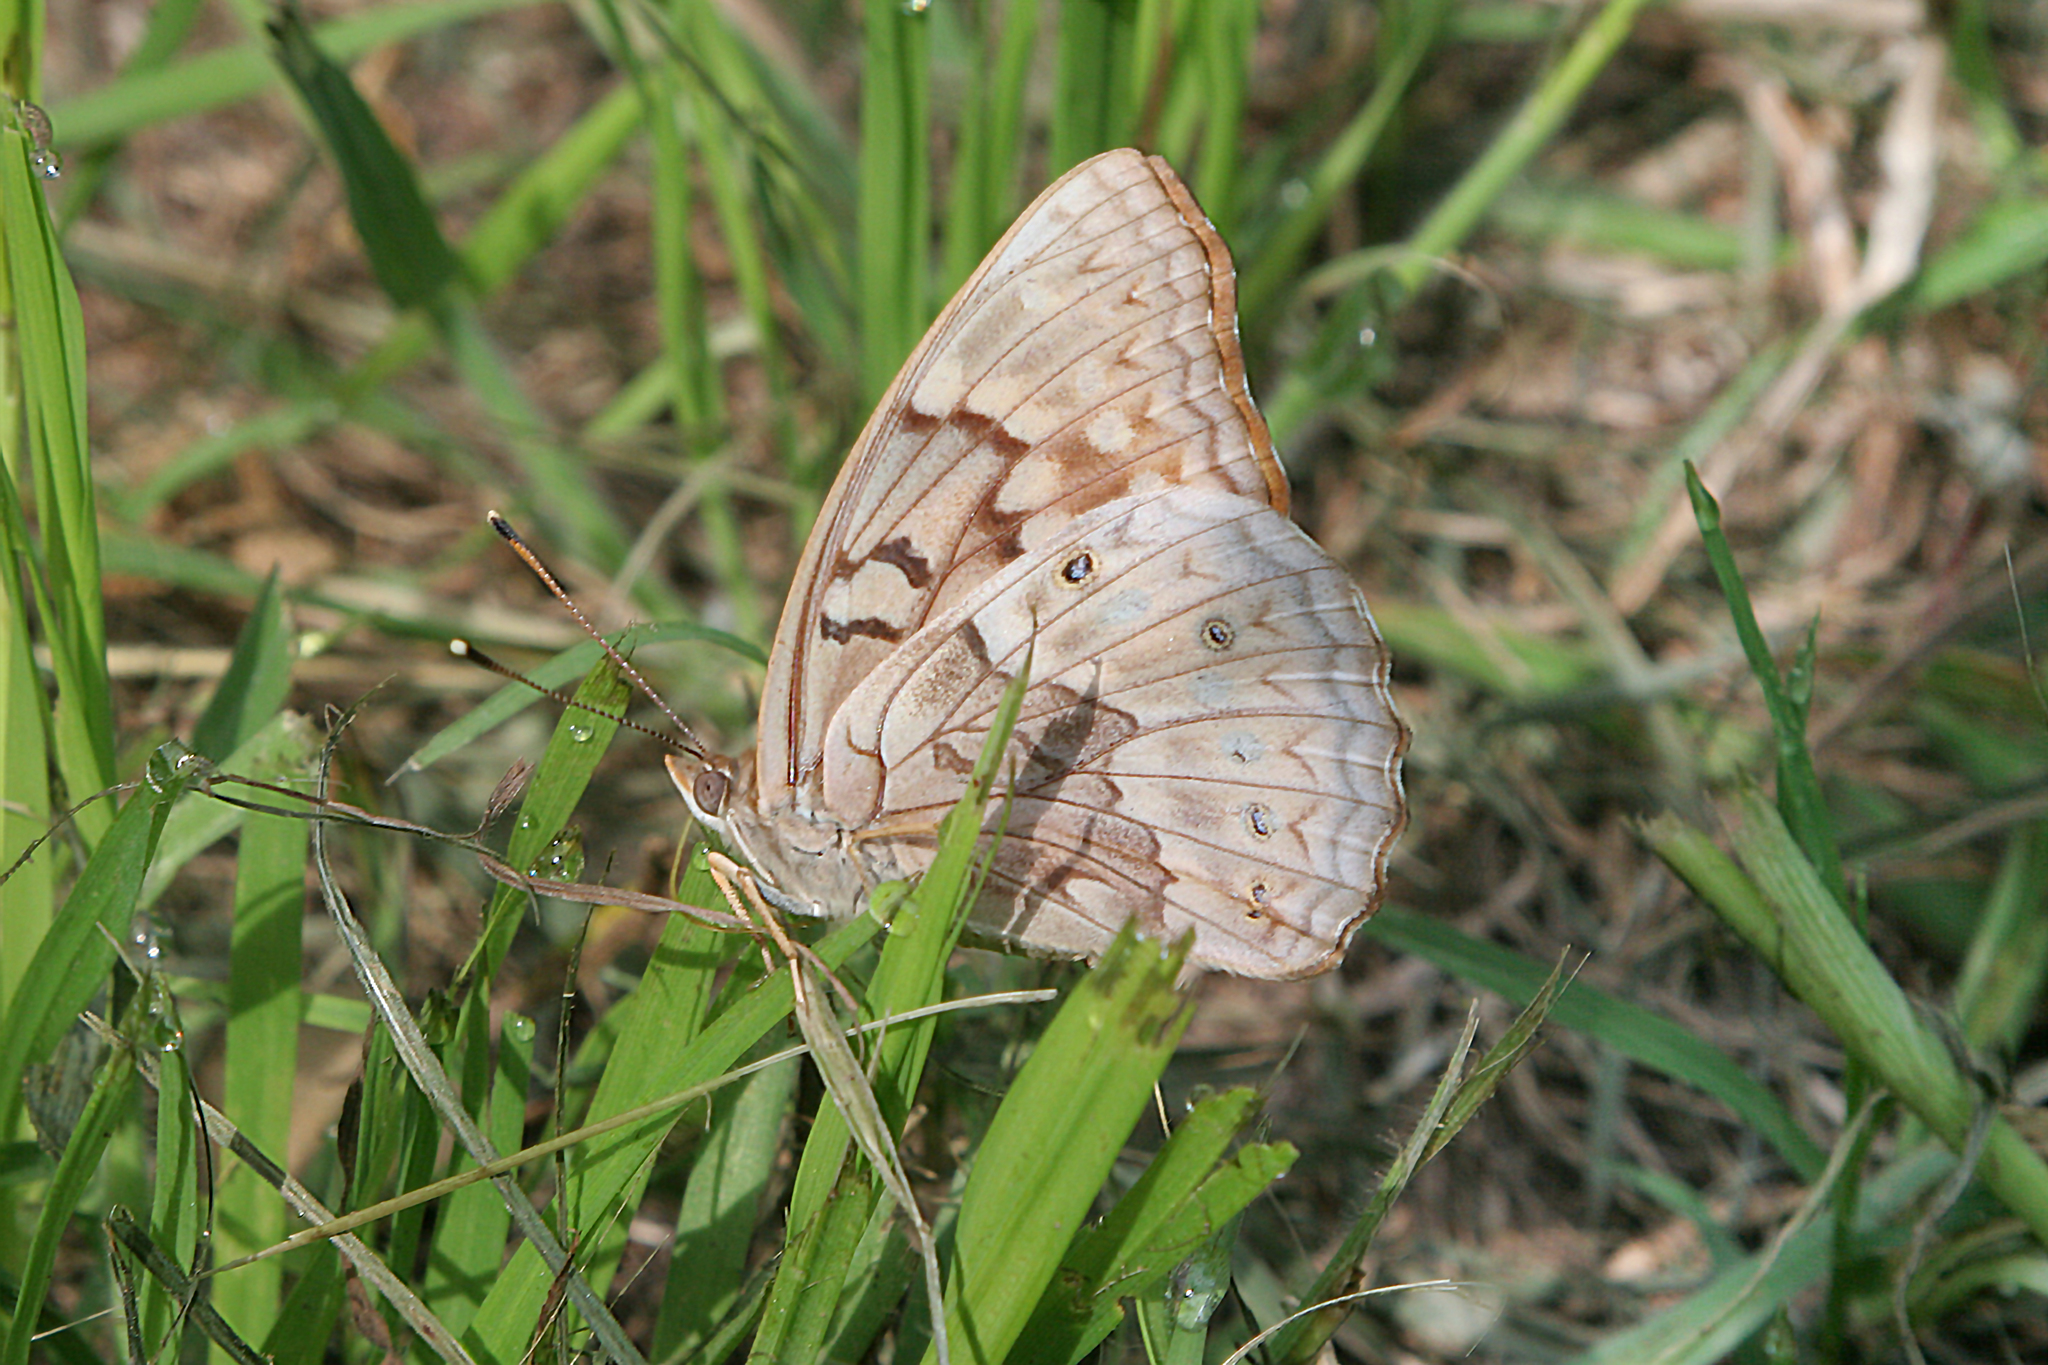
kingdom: Animalia
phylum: Arthropoda
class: Insecta
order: Lepidoptera
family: Nymphalidae
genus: Asterocampa
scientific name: Asterocampa clyton
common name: Tawny emperor
